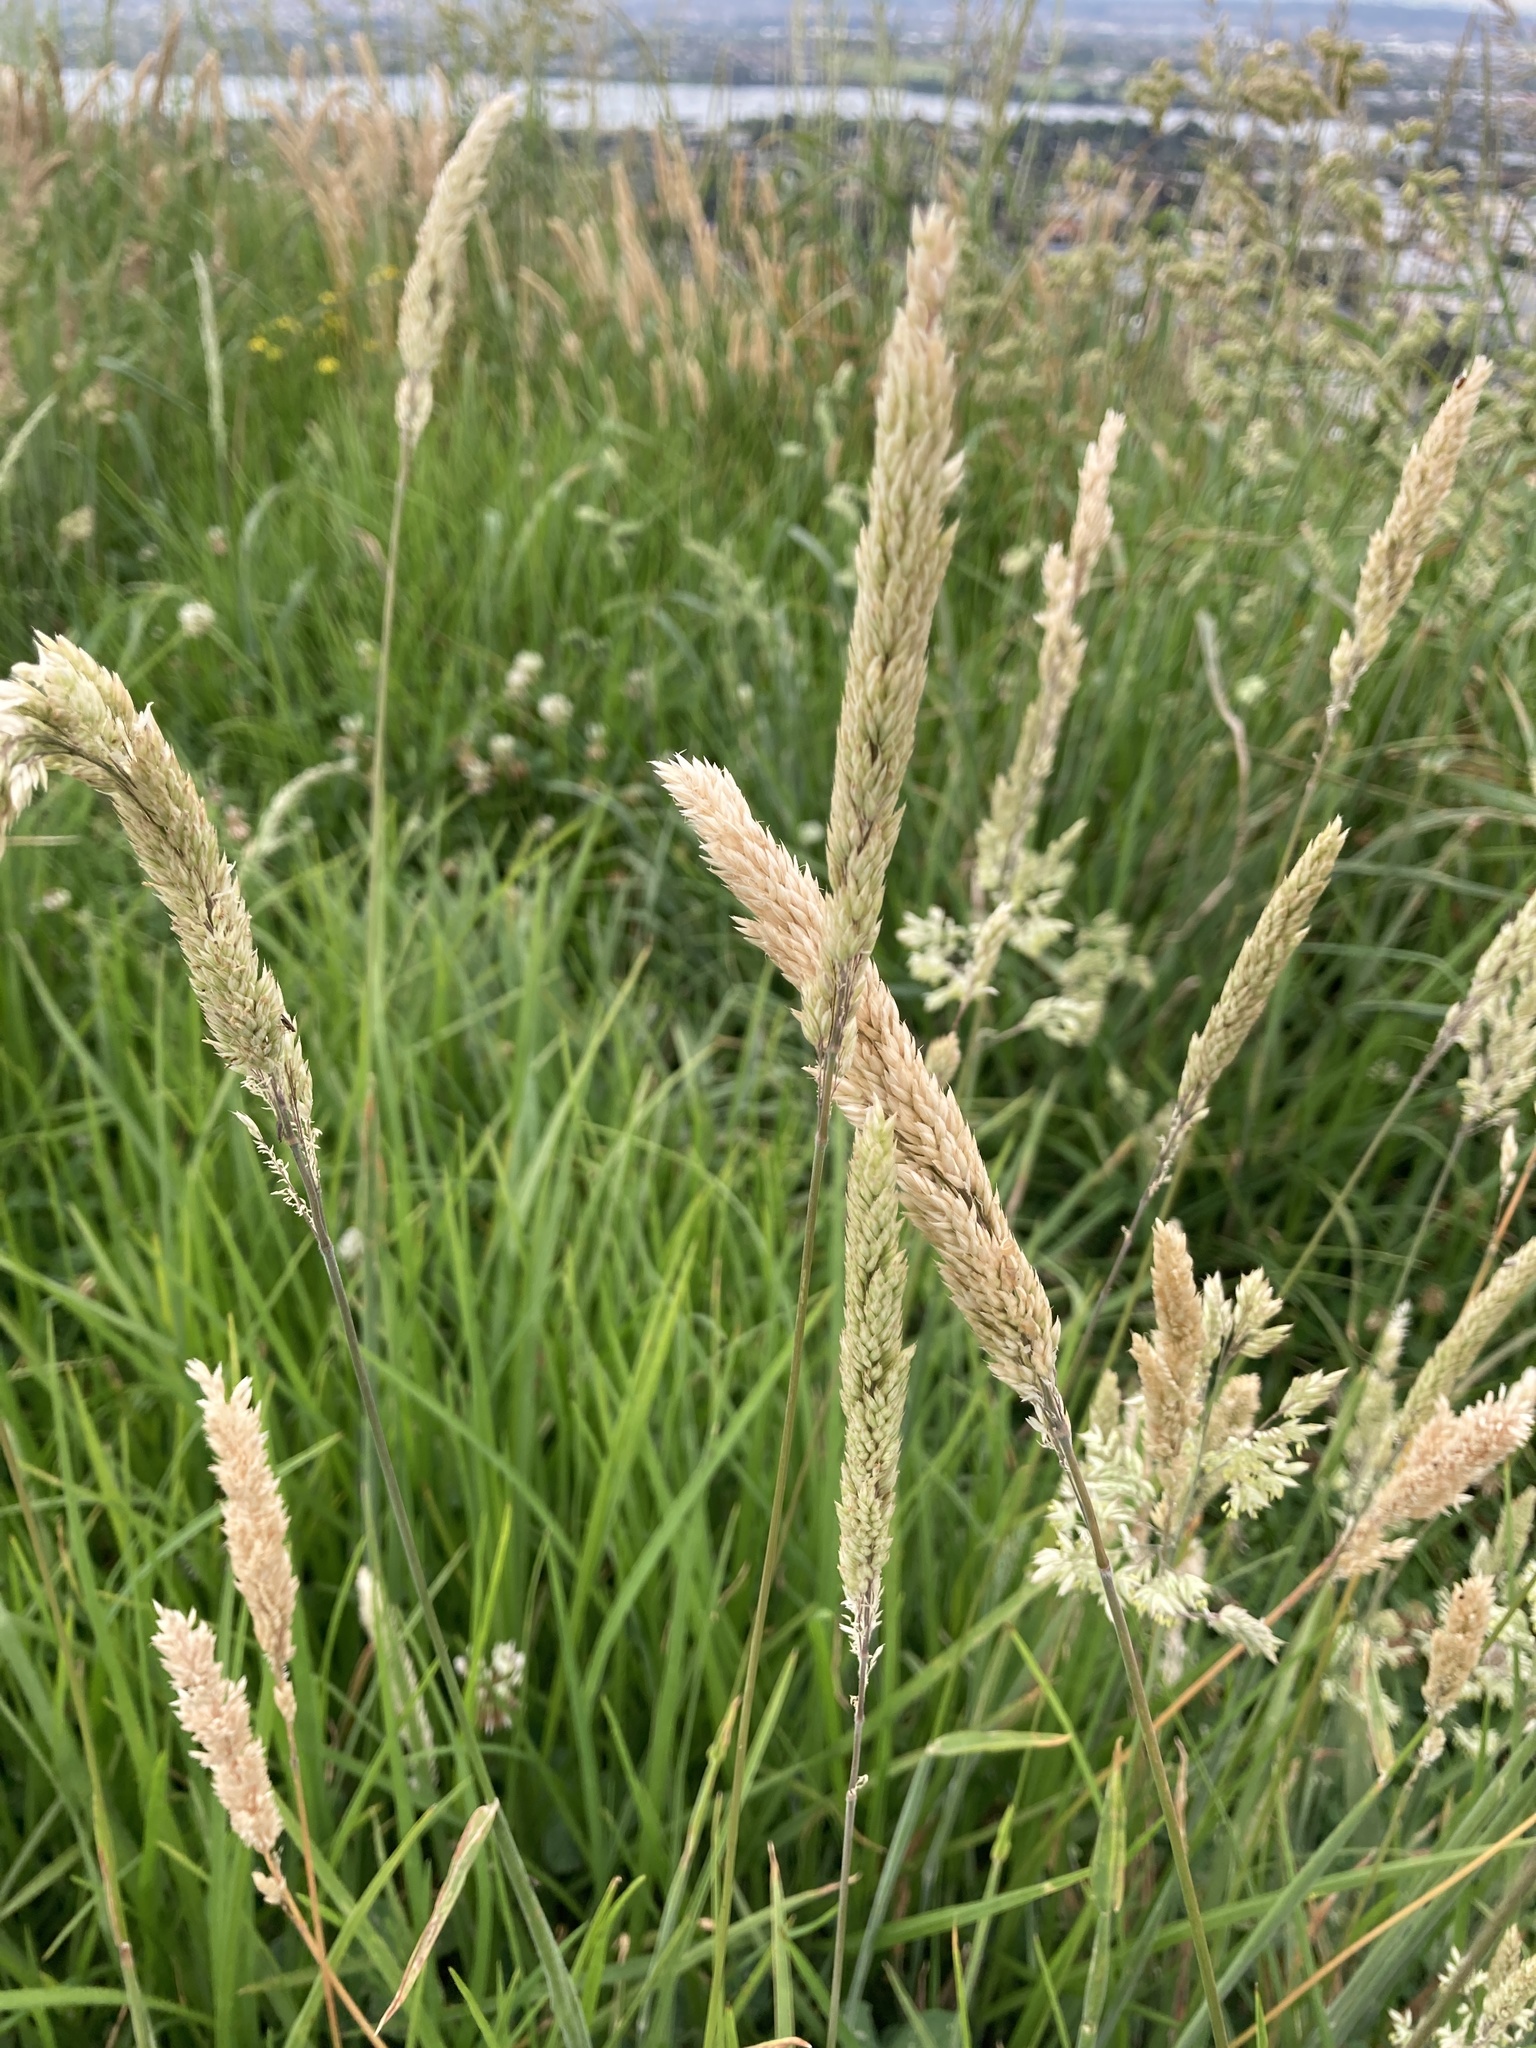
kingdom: Plantae
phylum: Tracheophyta
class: Liliopsida
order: Poales
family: Poaceae
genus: Holcus
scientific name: Holcus lanatus
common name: Yorkshire-fog
